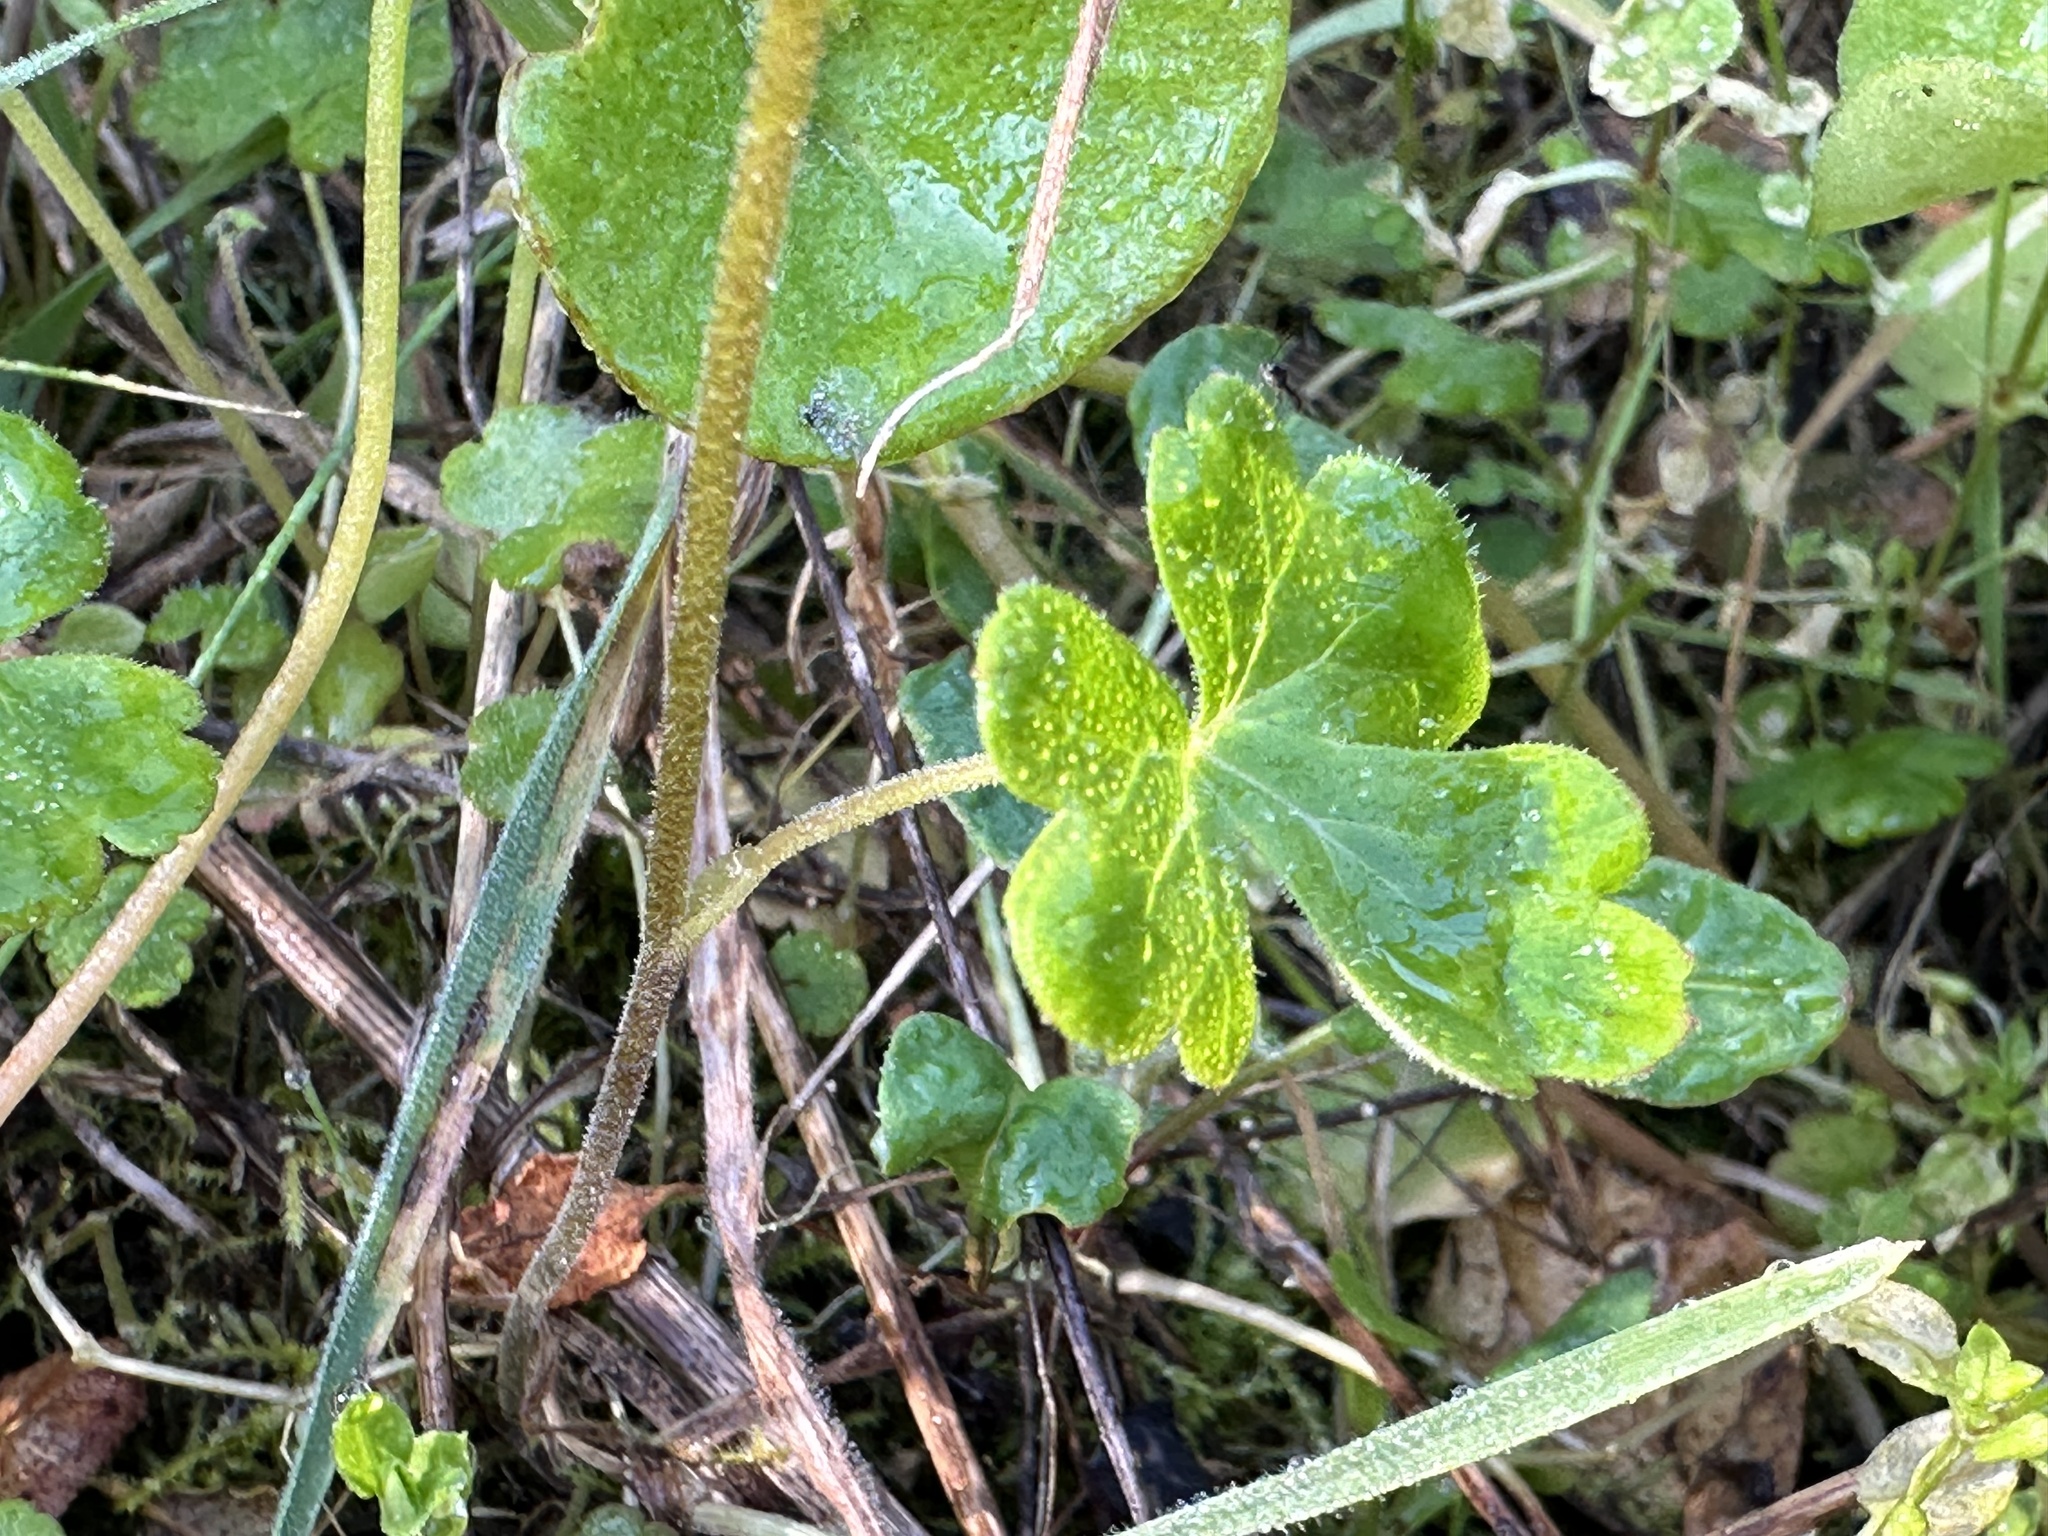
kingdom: Plantae
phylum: Tracheophyta
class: Magnoliopsida
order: Saxifragales
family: Saxifragaceae
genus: Lithophragma
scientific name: Lithophragma affine
